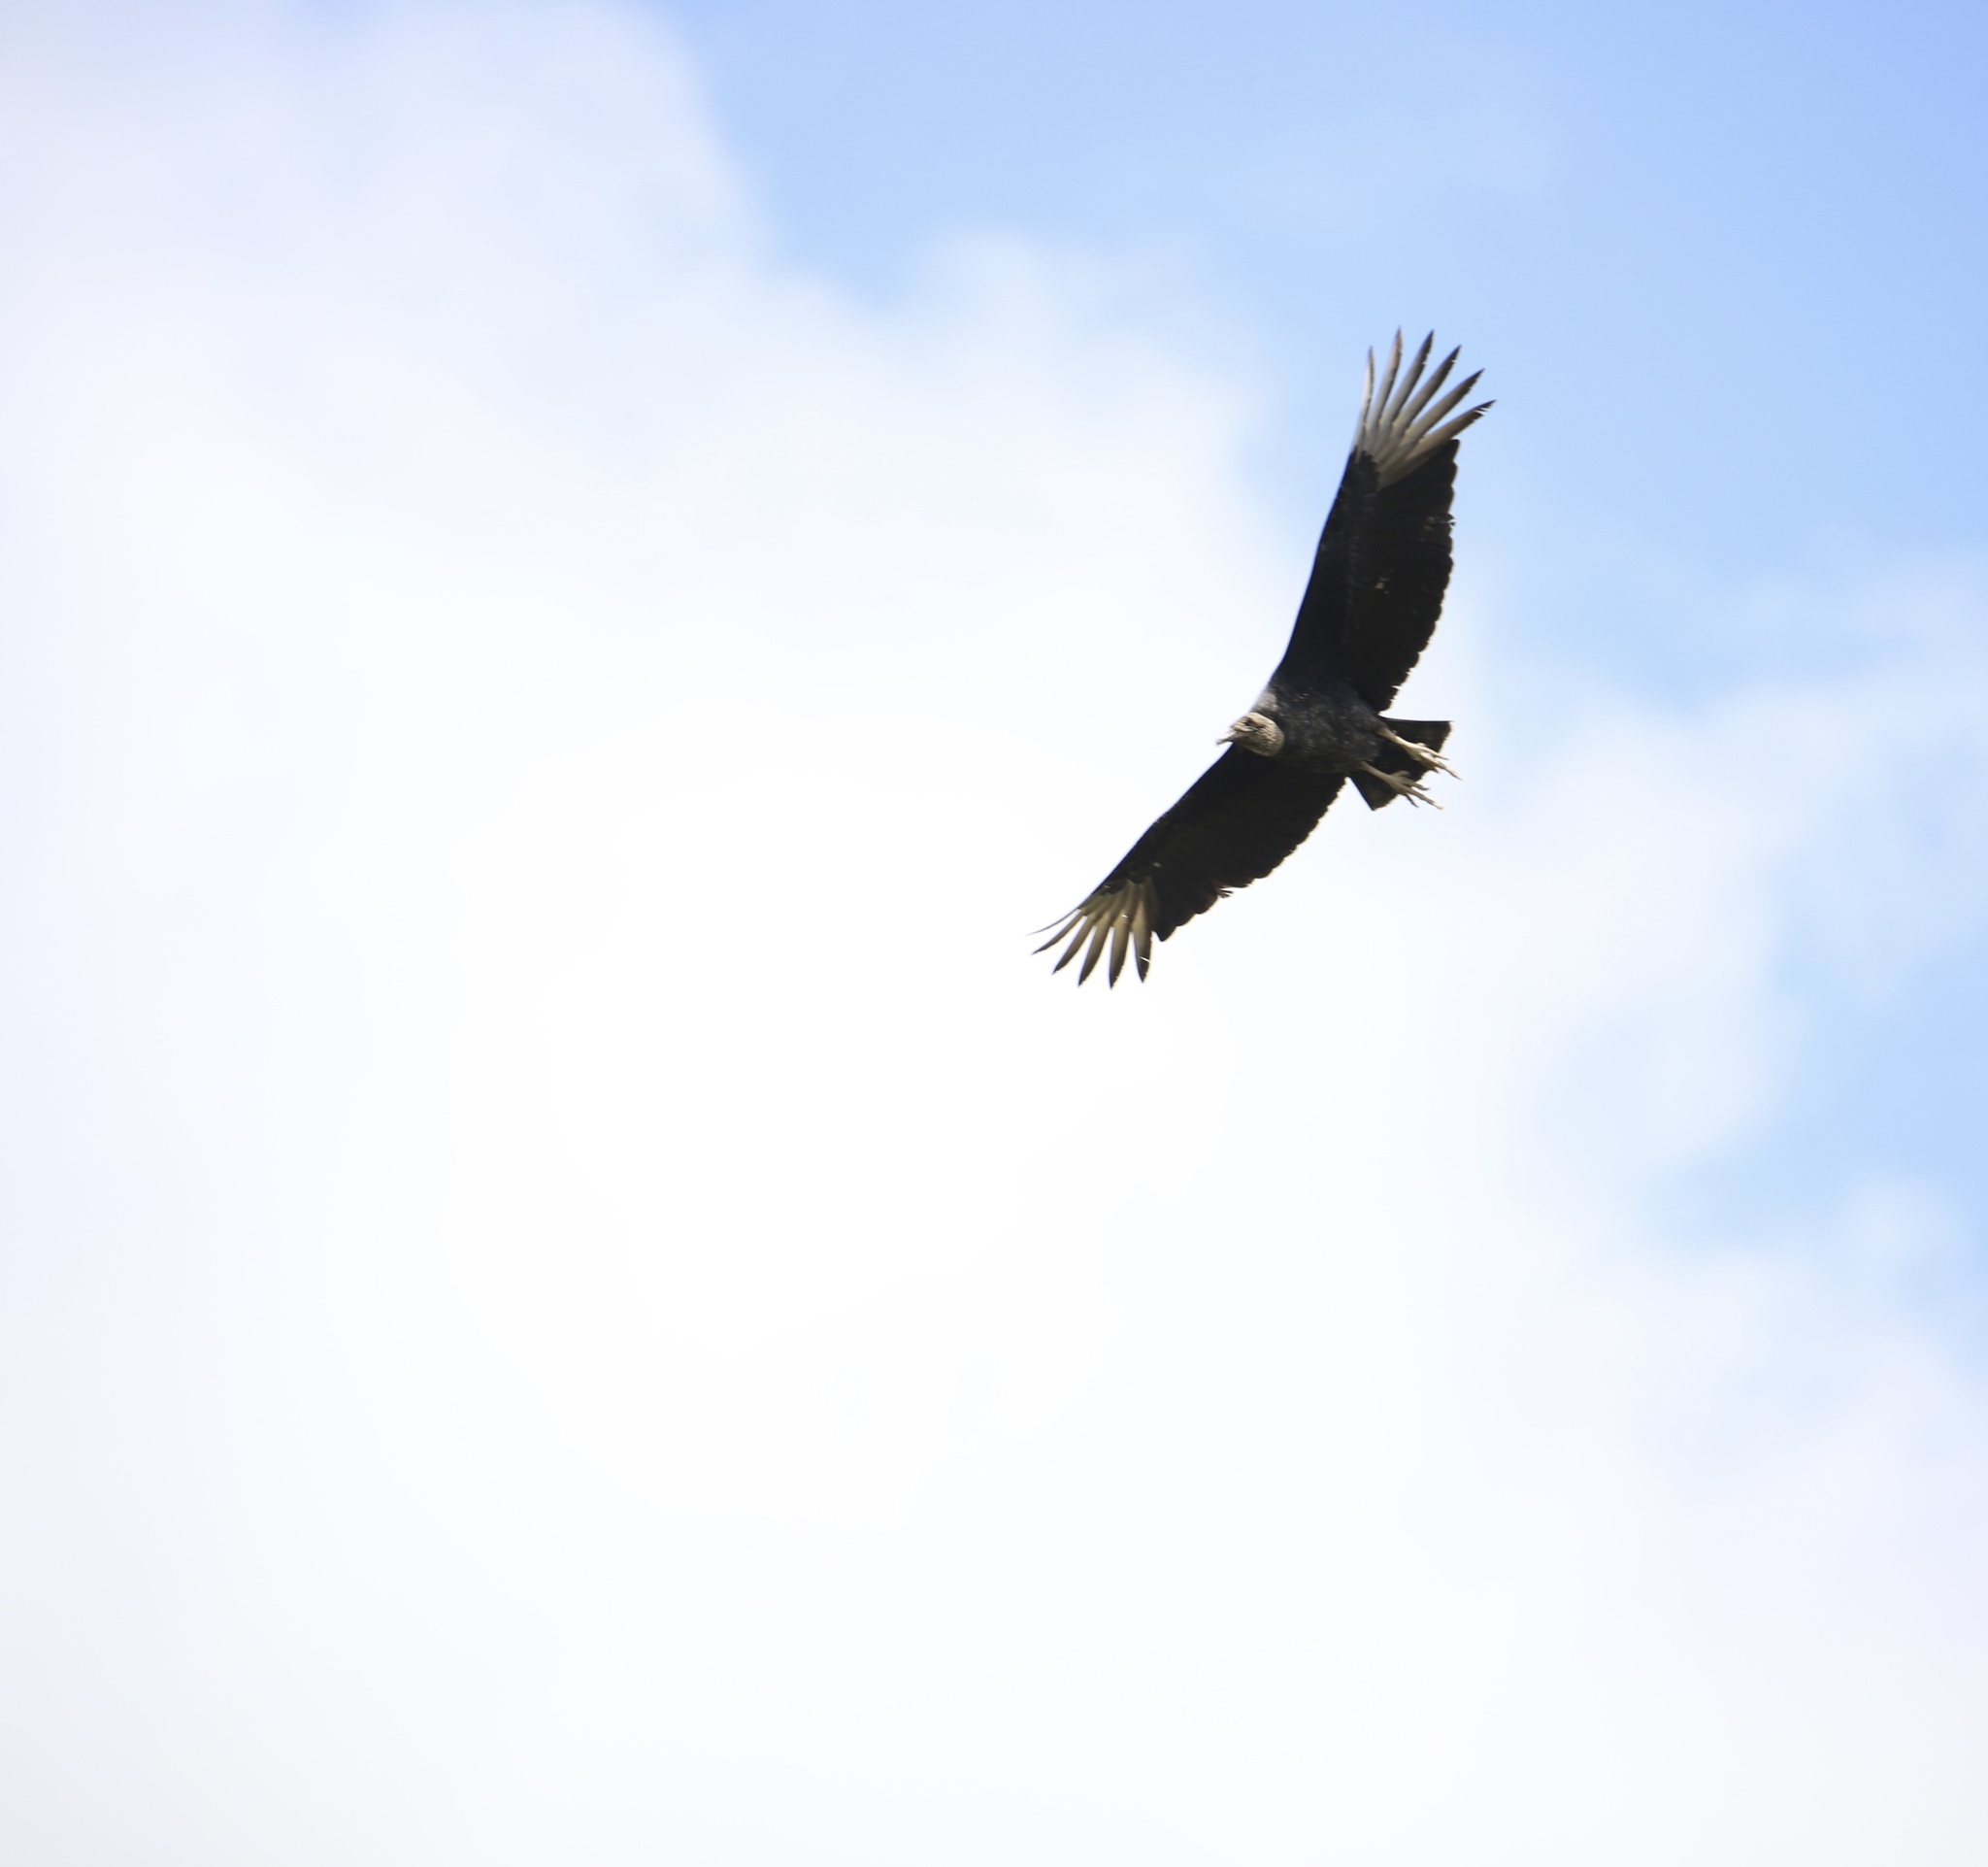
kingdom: Animalia
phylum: Chordata
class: Aves
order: Accipitriformes
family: Cathartidae
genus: Coragyps
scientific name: Coragyps atratus
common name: Black vulture
